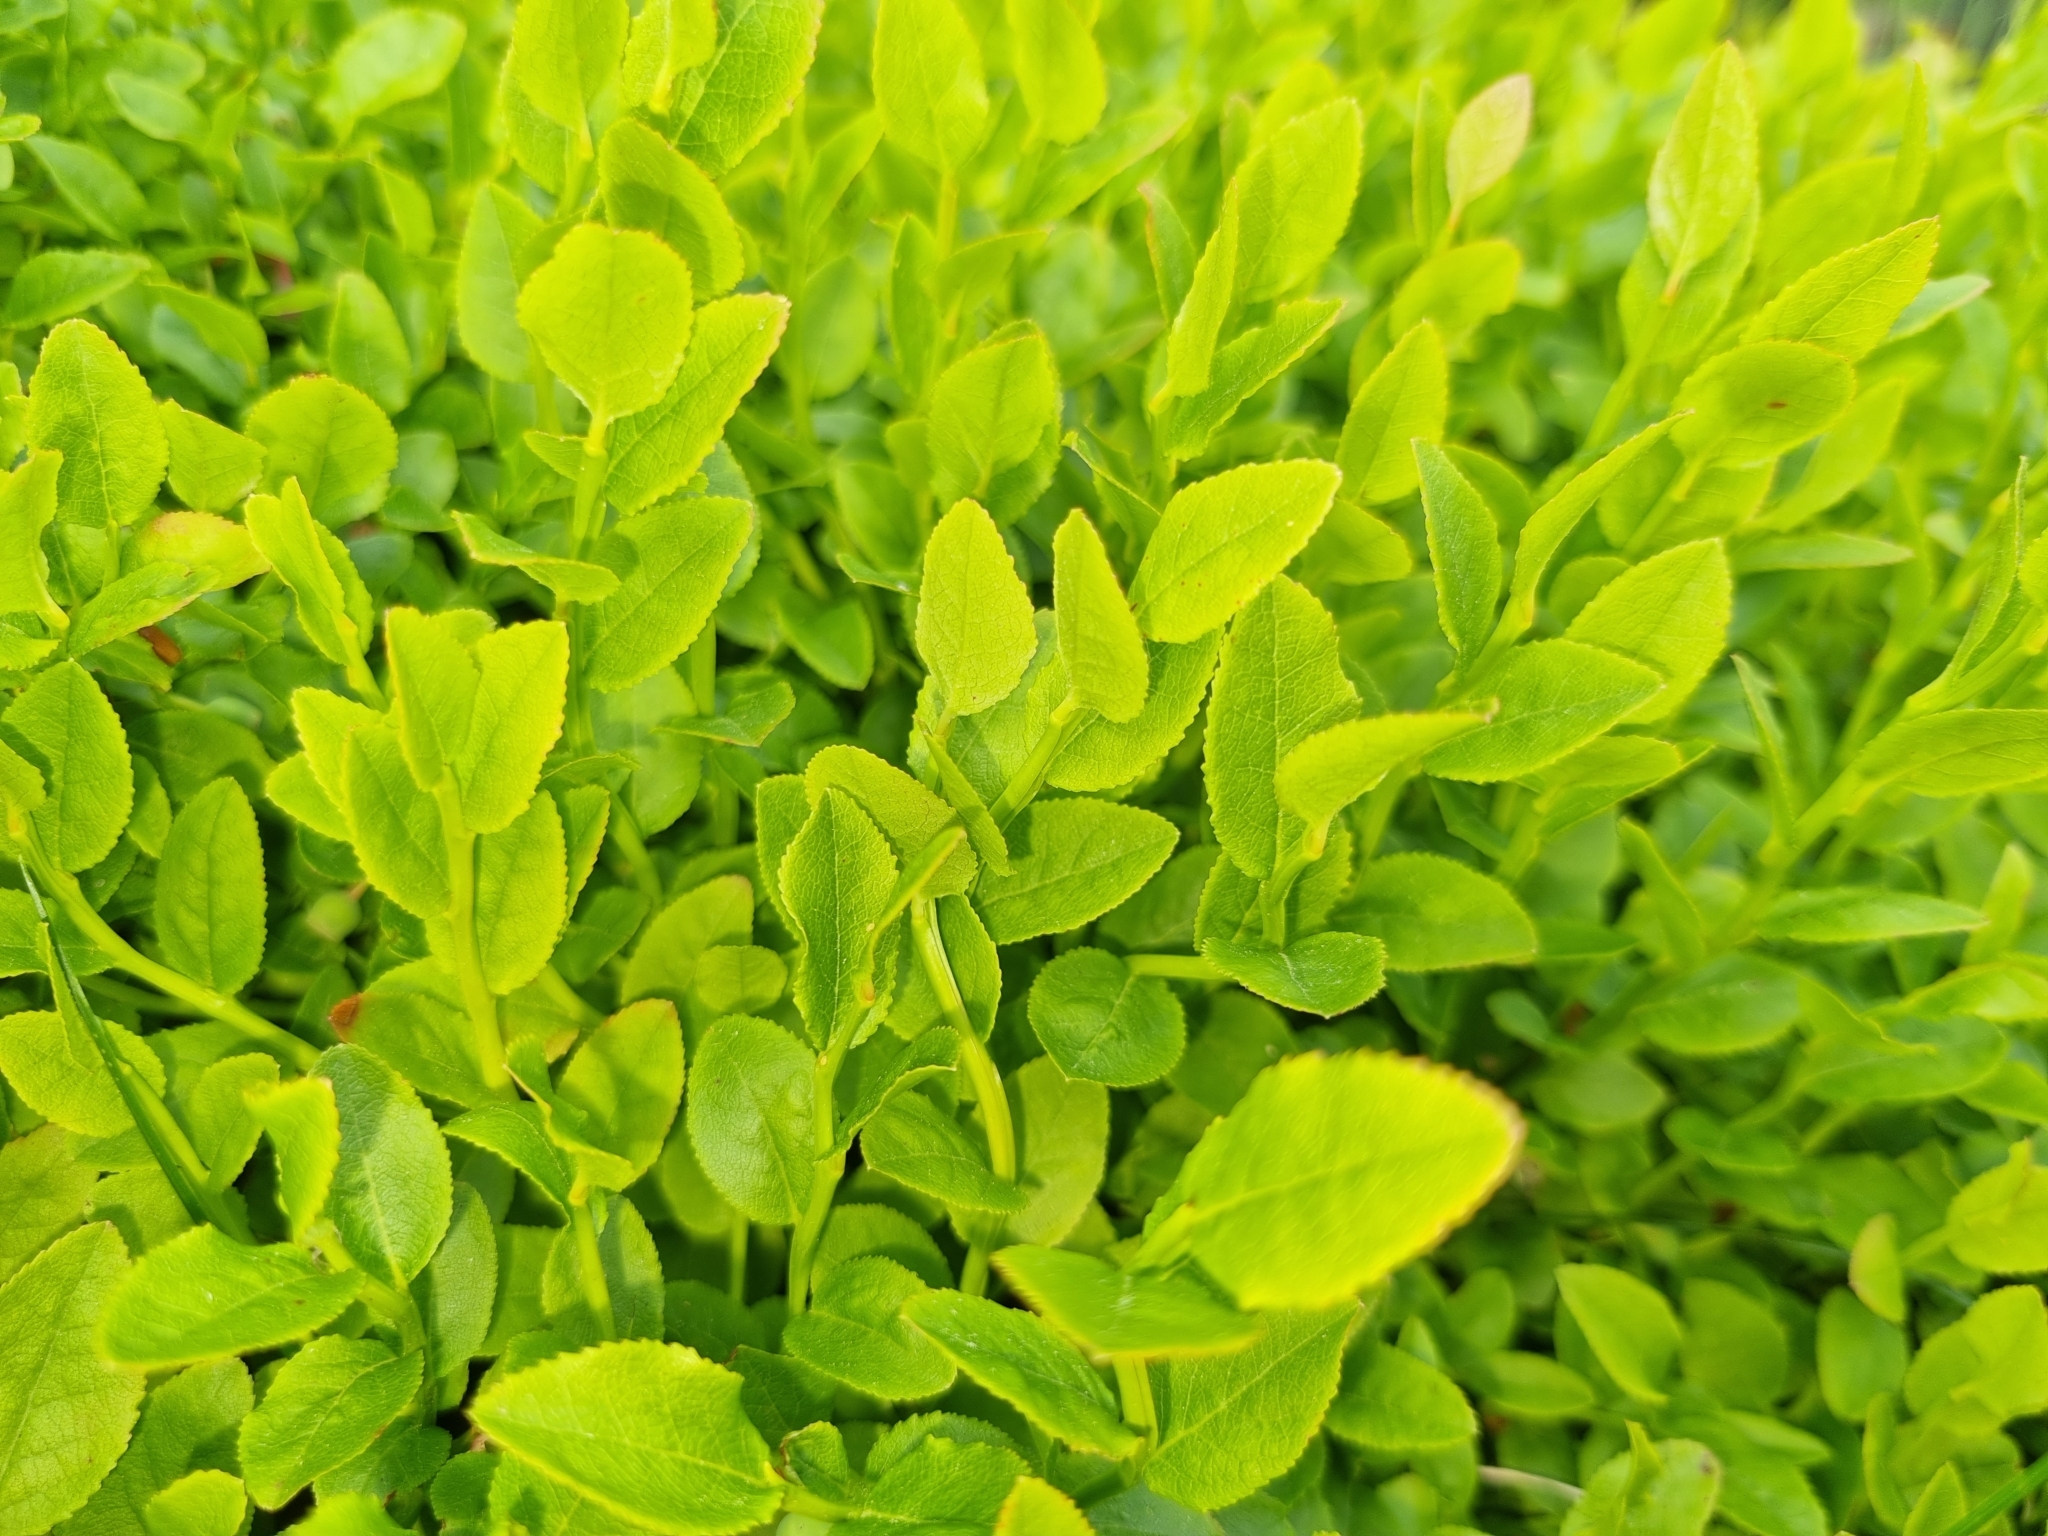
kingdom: Plantae
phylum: Tracheophyta
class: Magnoliopsida
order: Ericales
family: Ericaceae
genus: Vaccinium
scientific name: Vaccinium myrtillus
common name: Bilberry
